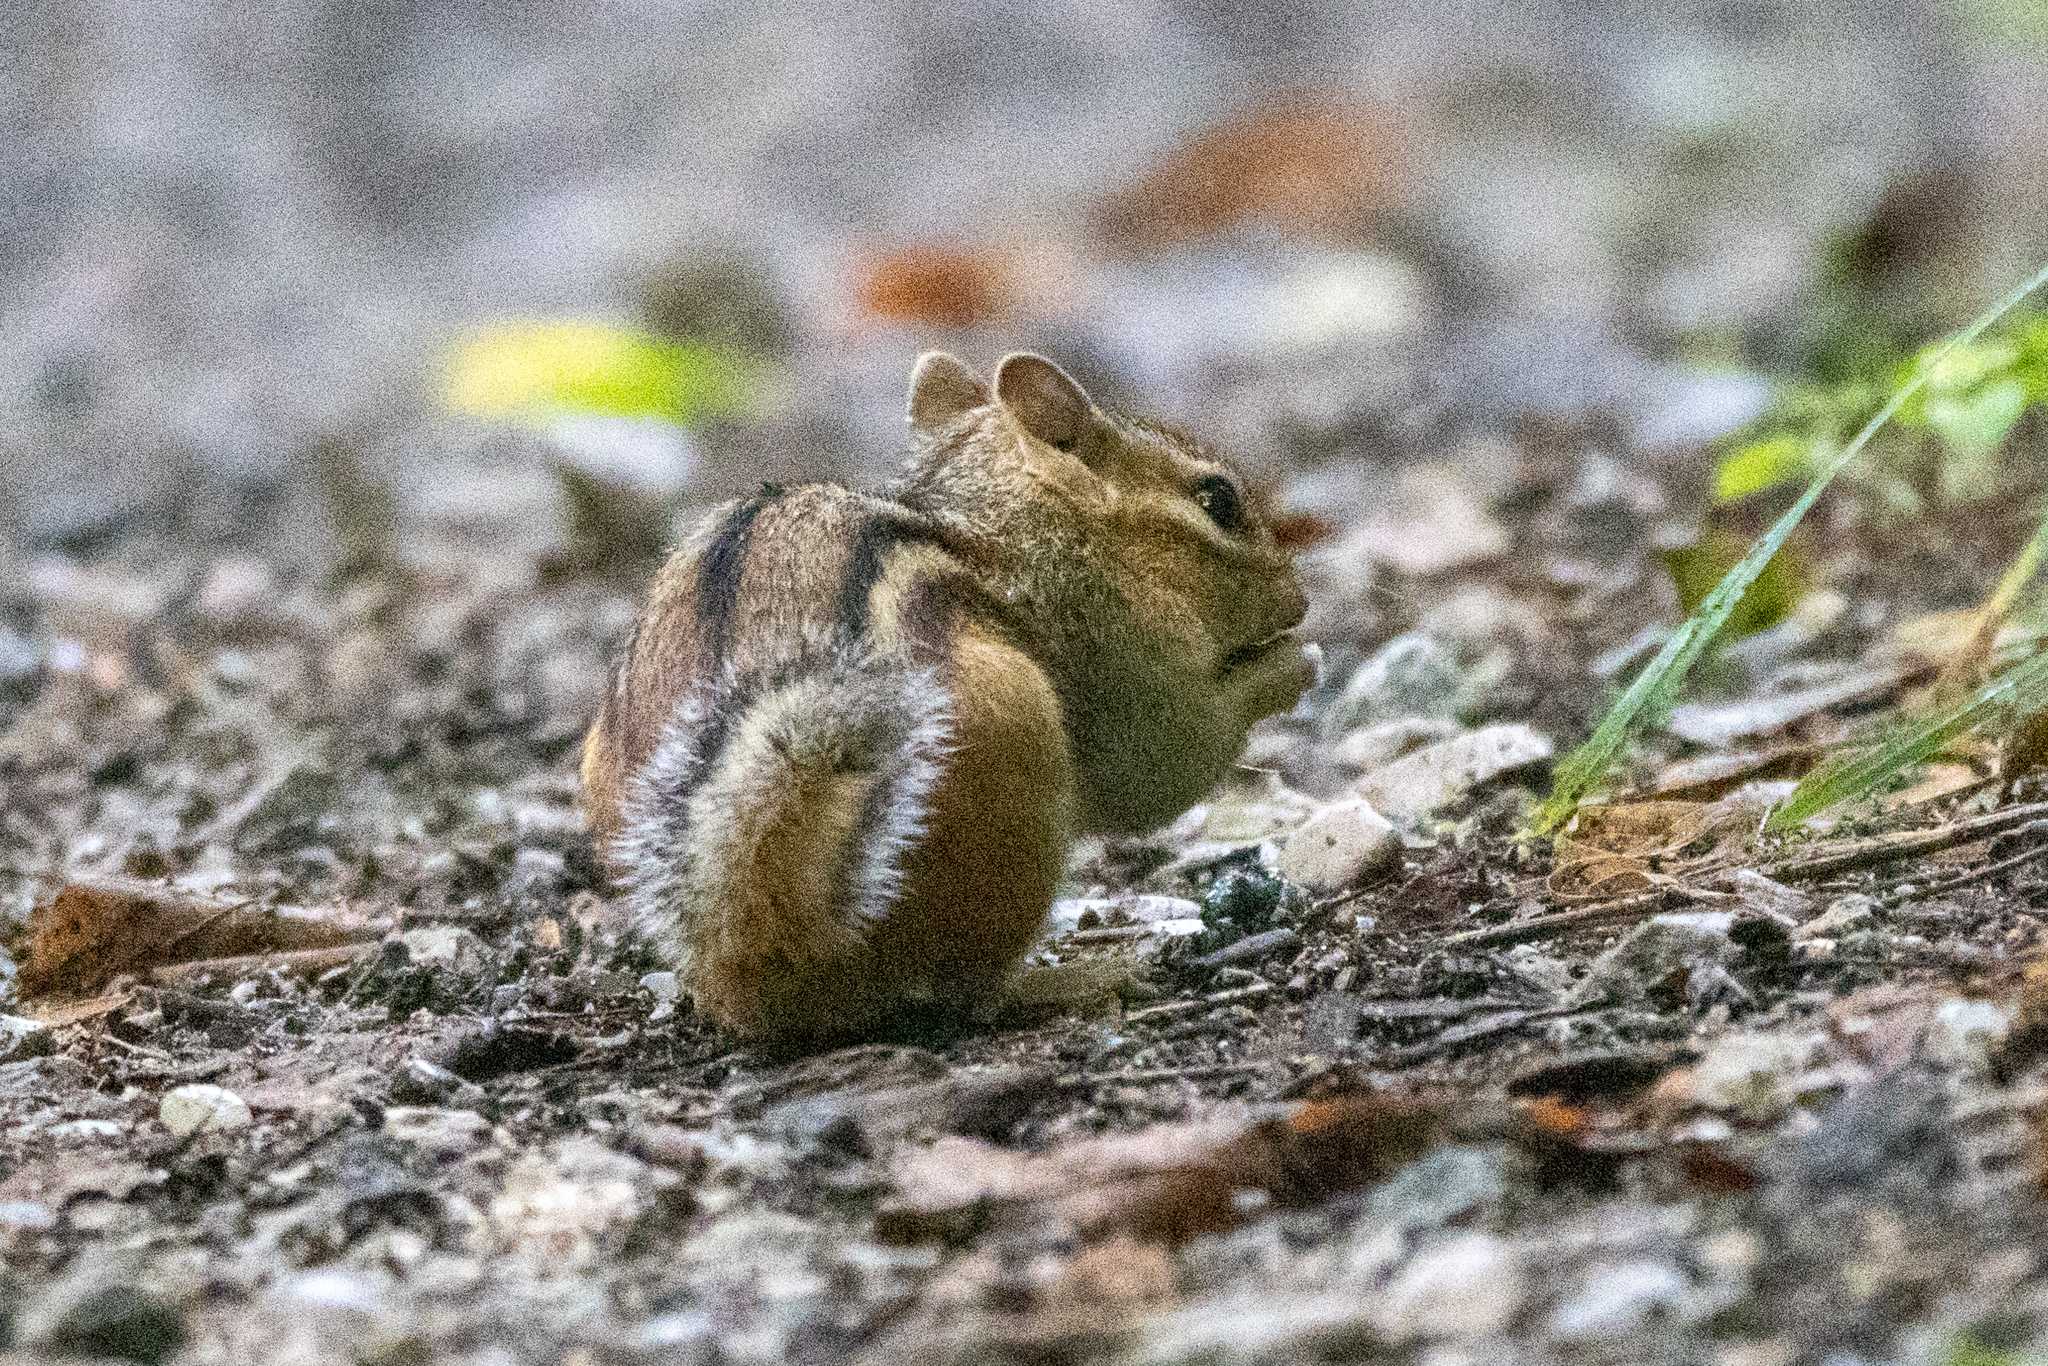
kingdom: Animalia
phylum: Chordata
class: Mammalia
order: Rodentia
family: Sciuridae
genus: Tamias
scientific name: Tamias striatus
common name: Eastern chipmunk
